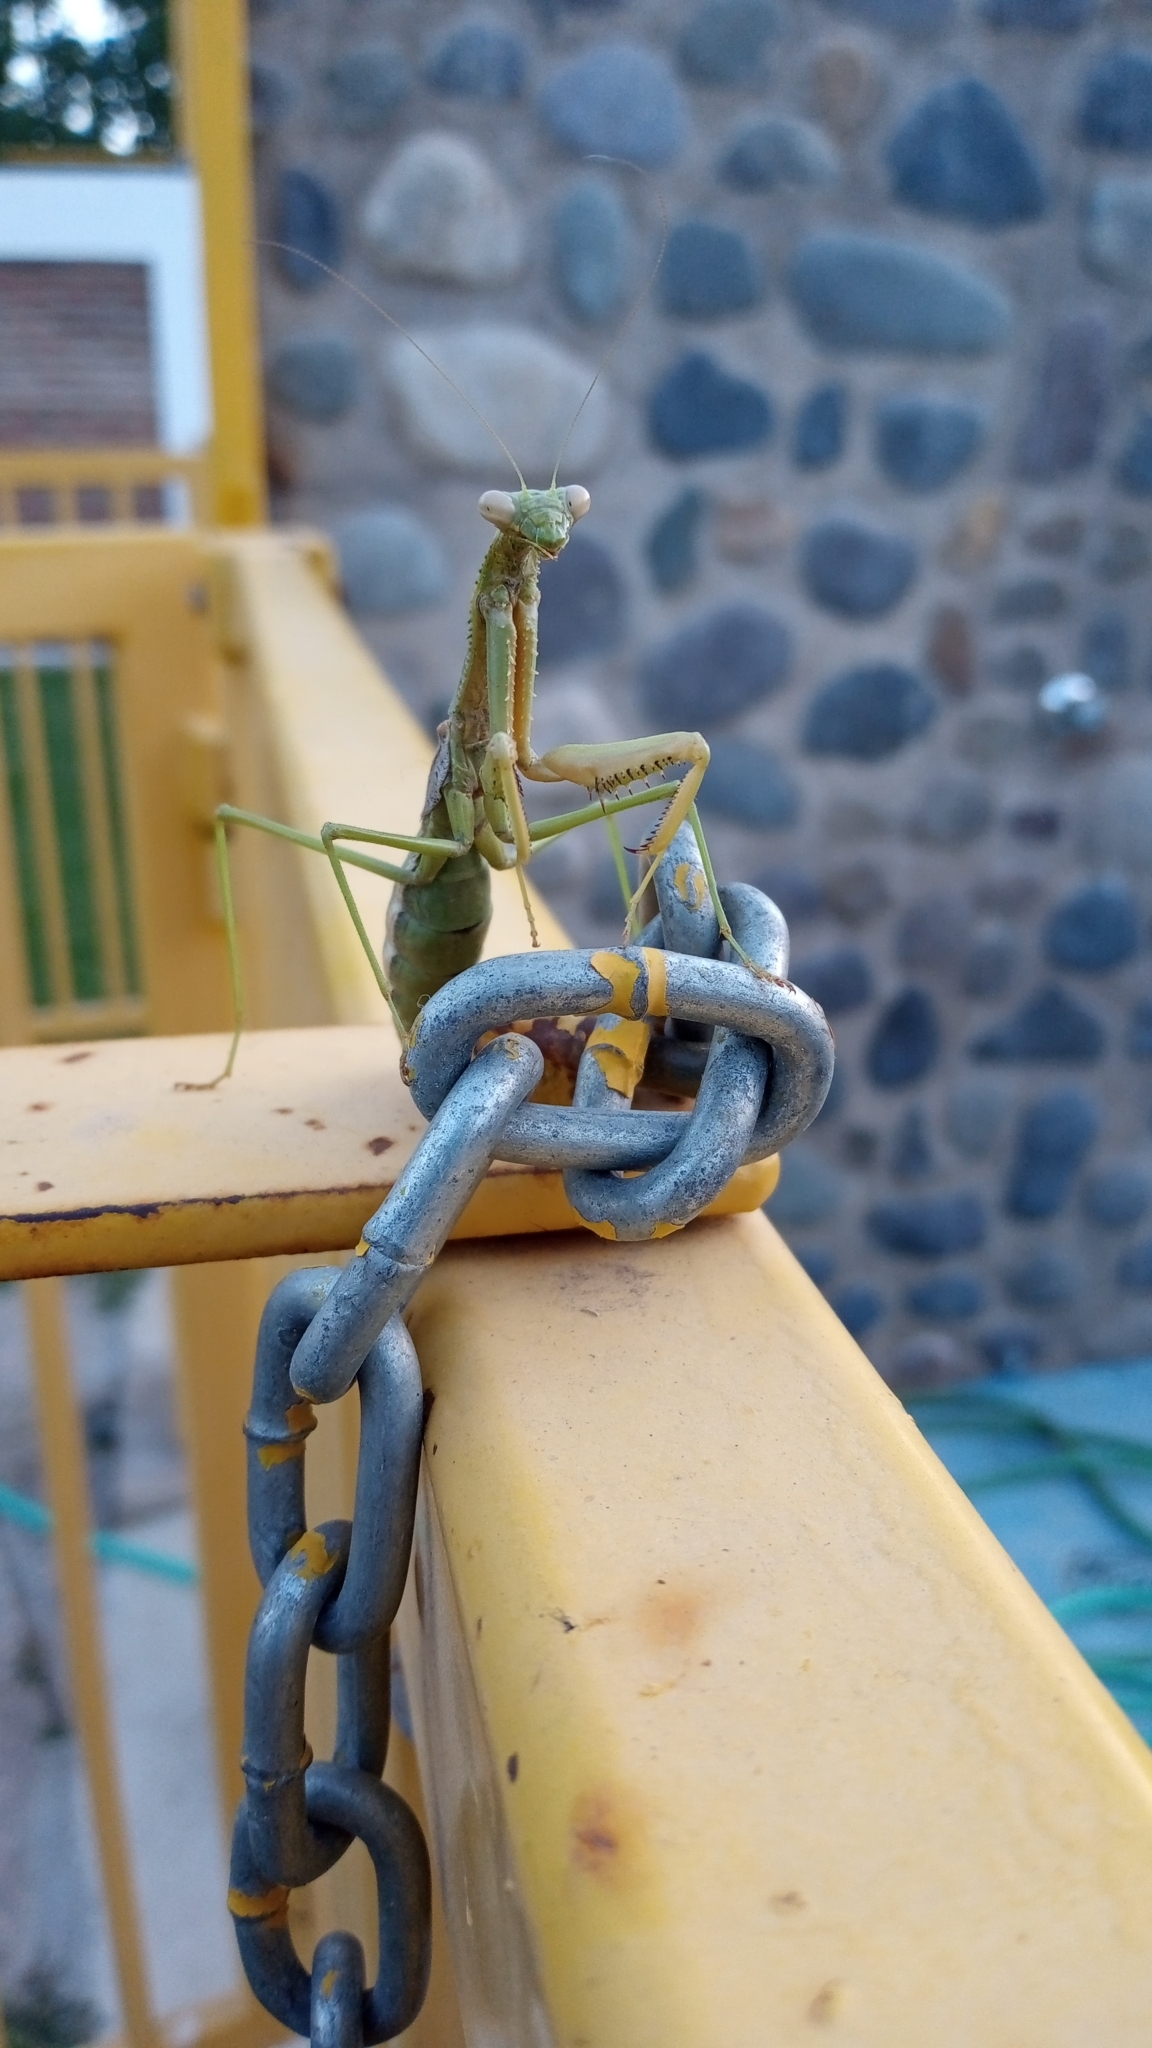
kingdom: Animalia
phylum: Arthropoda
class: Insecta
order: Mantodea
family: Coptopterygidae
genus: Coptopteryx
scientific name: Coptopteryx gayi
